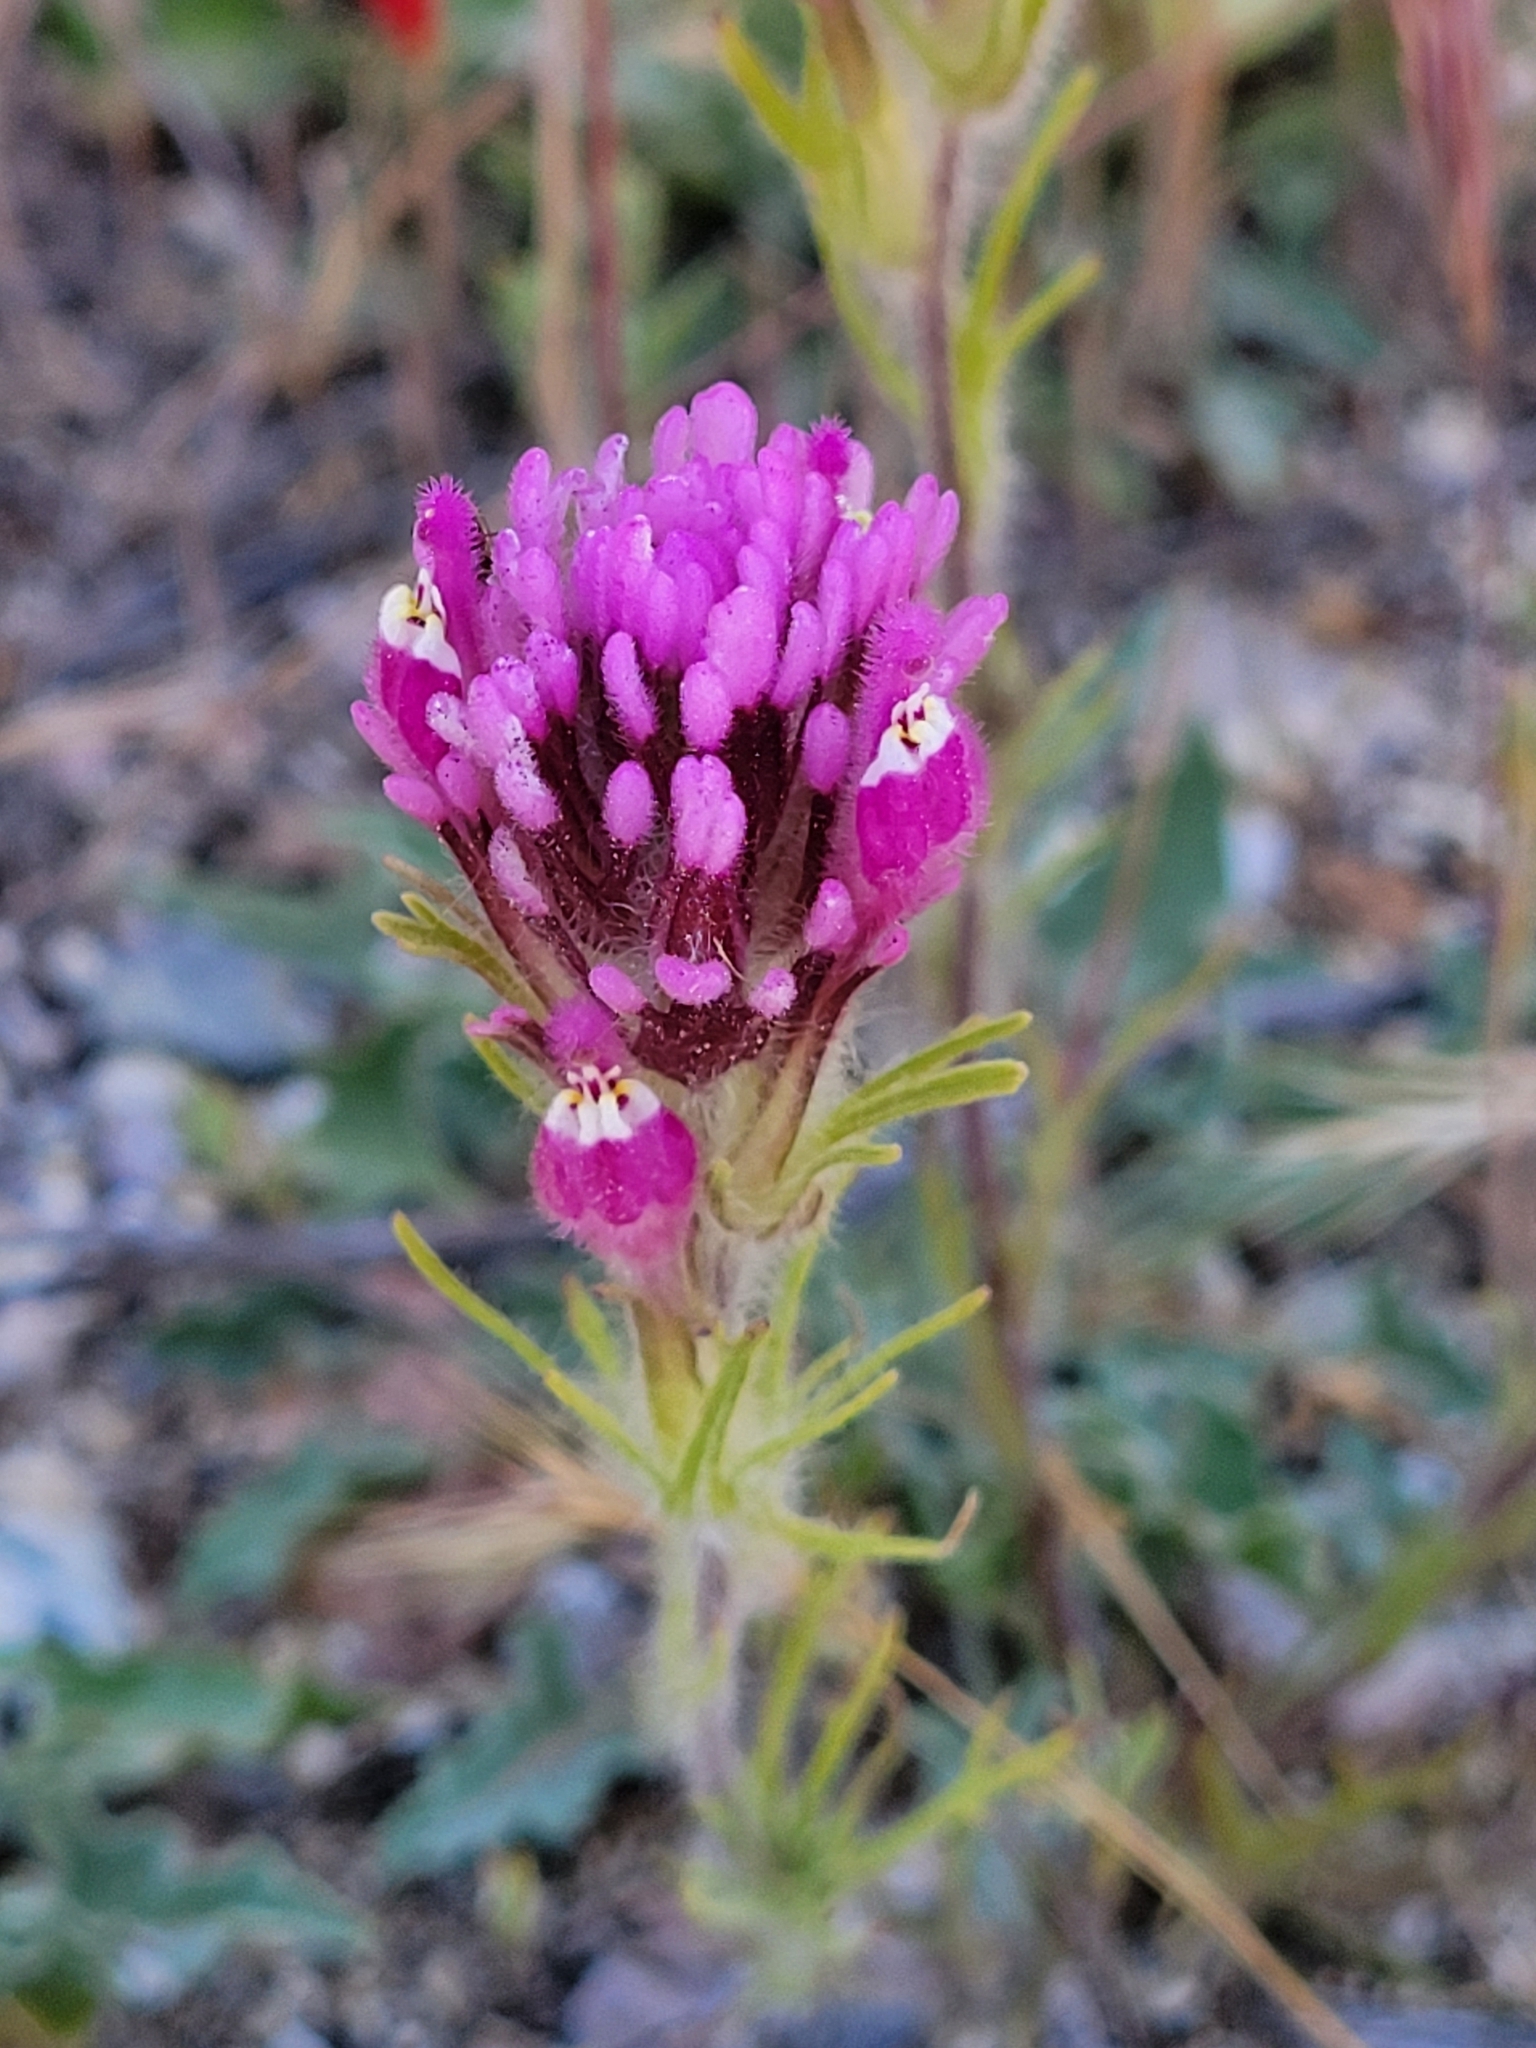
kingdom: Plantae
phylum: Tracheophyta
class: Magnoliopsida
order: Lamiales
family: Orobanchaceae
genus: Castilleja
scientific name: Castilleja exserta
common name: Purple owl-clover
